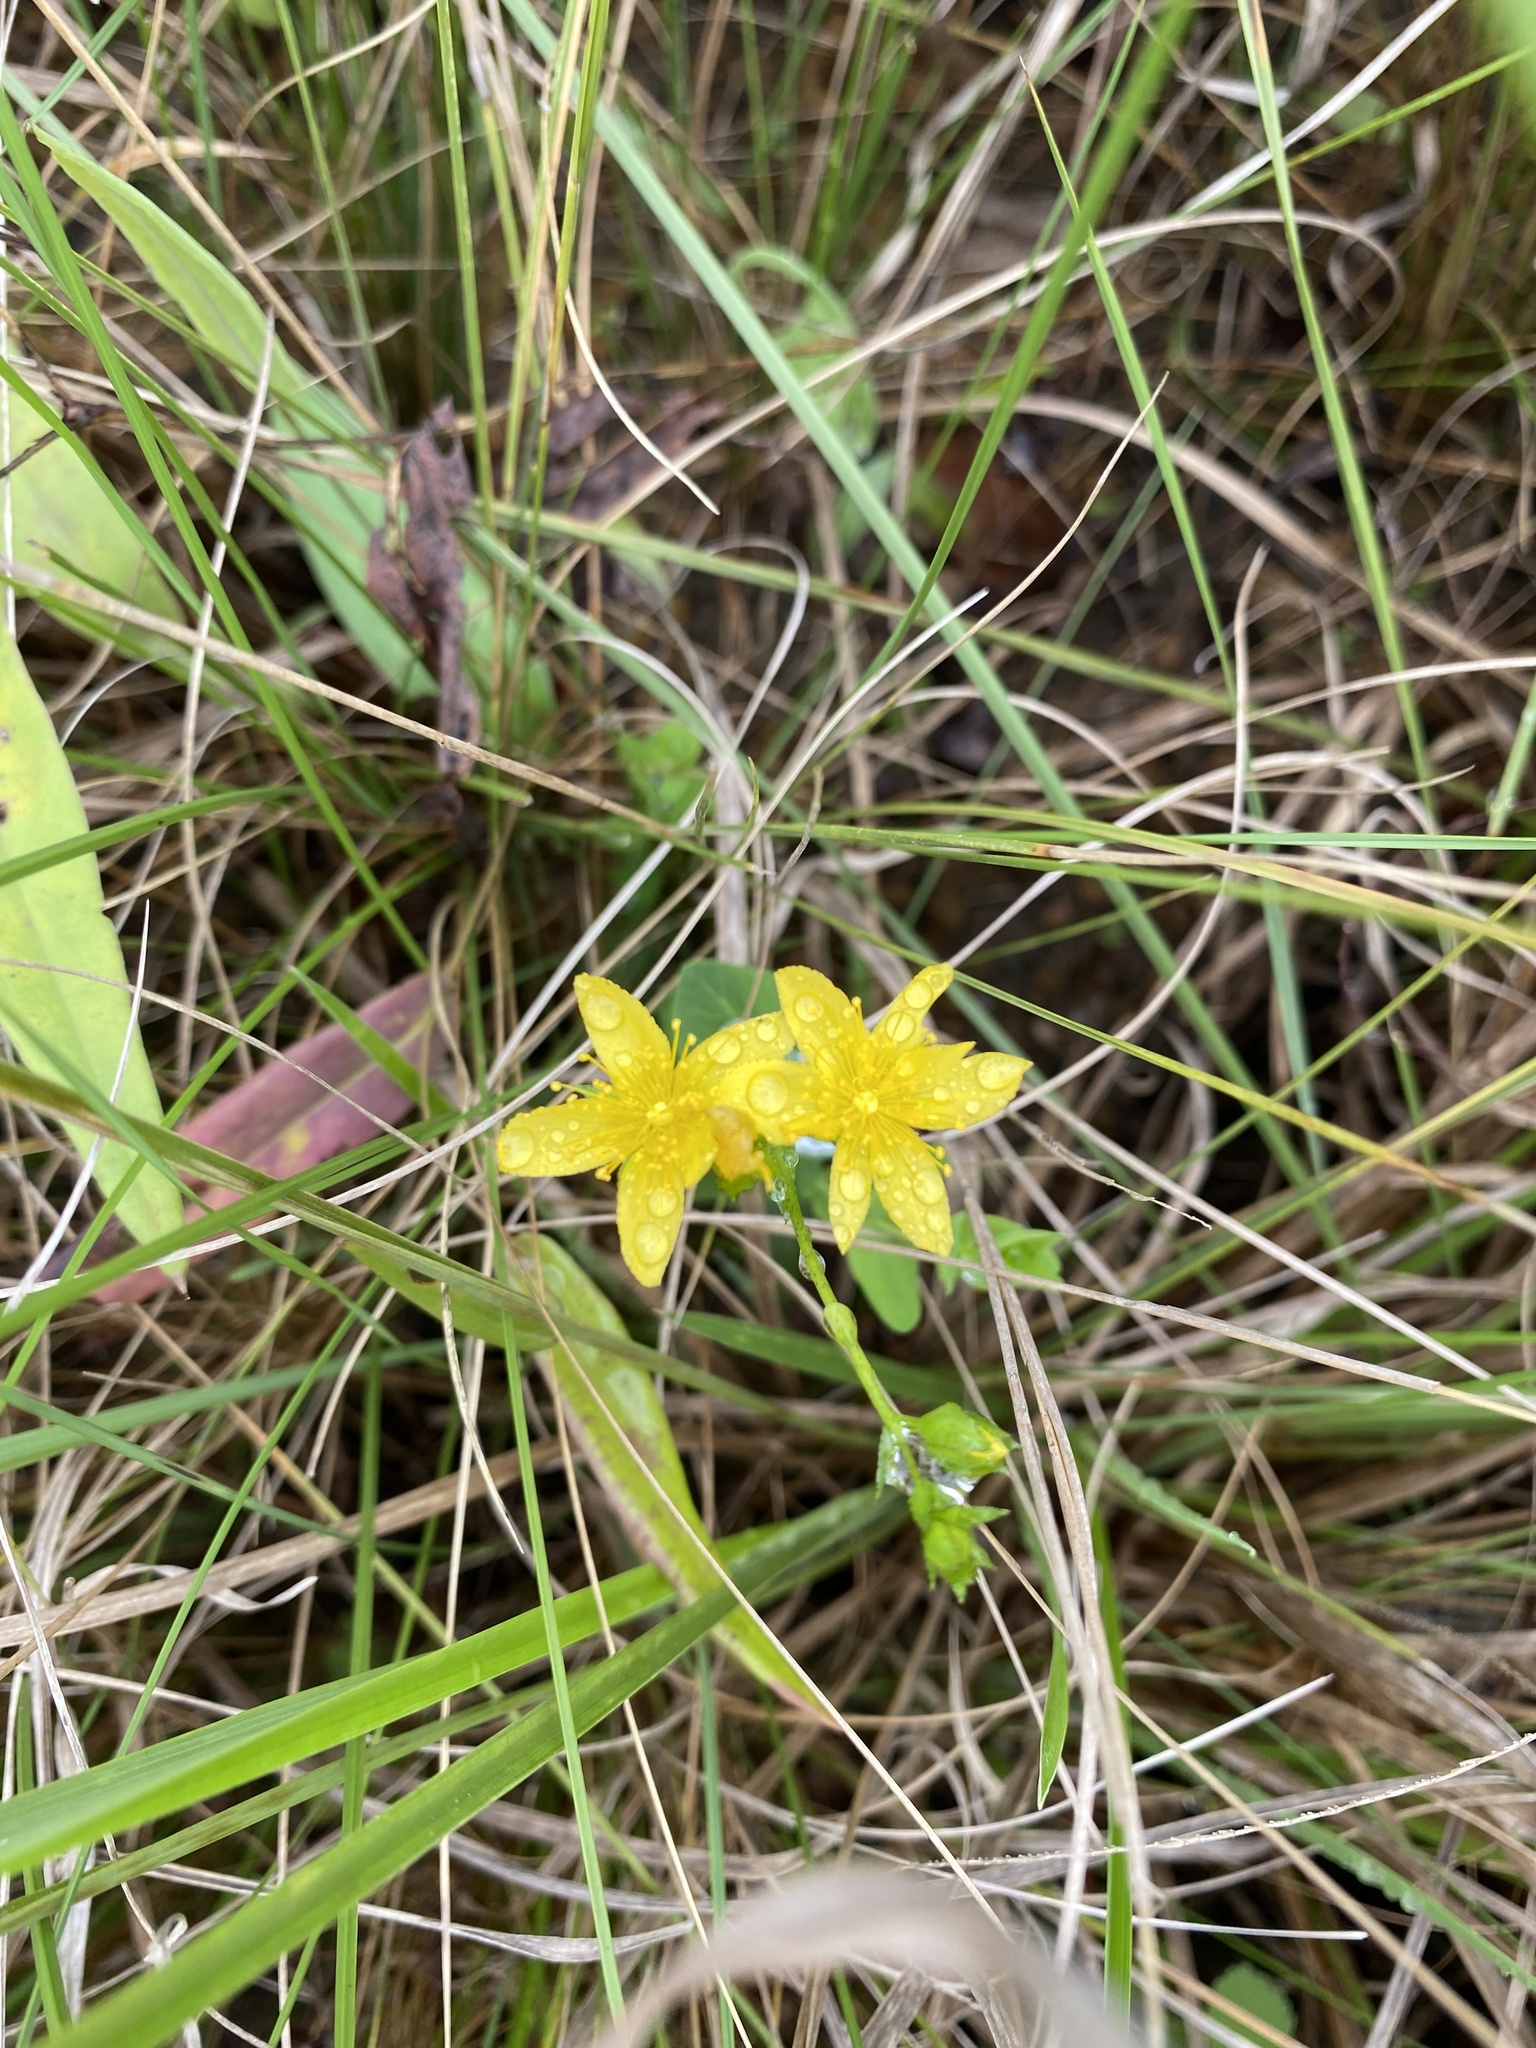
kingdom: Plantae
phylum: Tracheophyta
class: Magnoliopsida
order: Malpighiales
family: Hypericaceae
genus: Hypericum
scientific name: Hypericum aethiopicum
